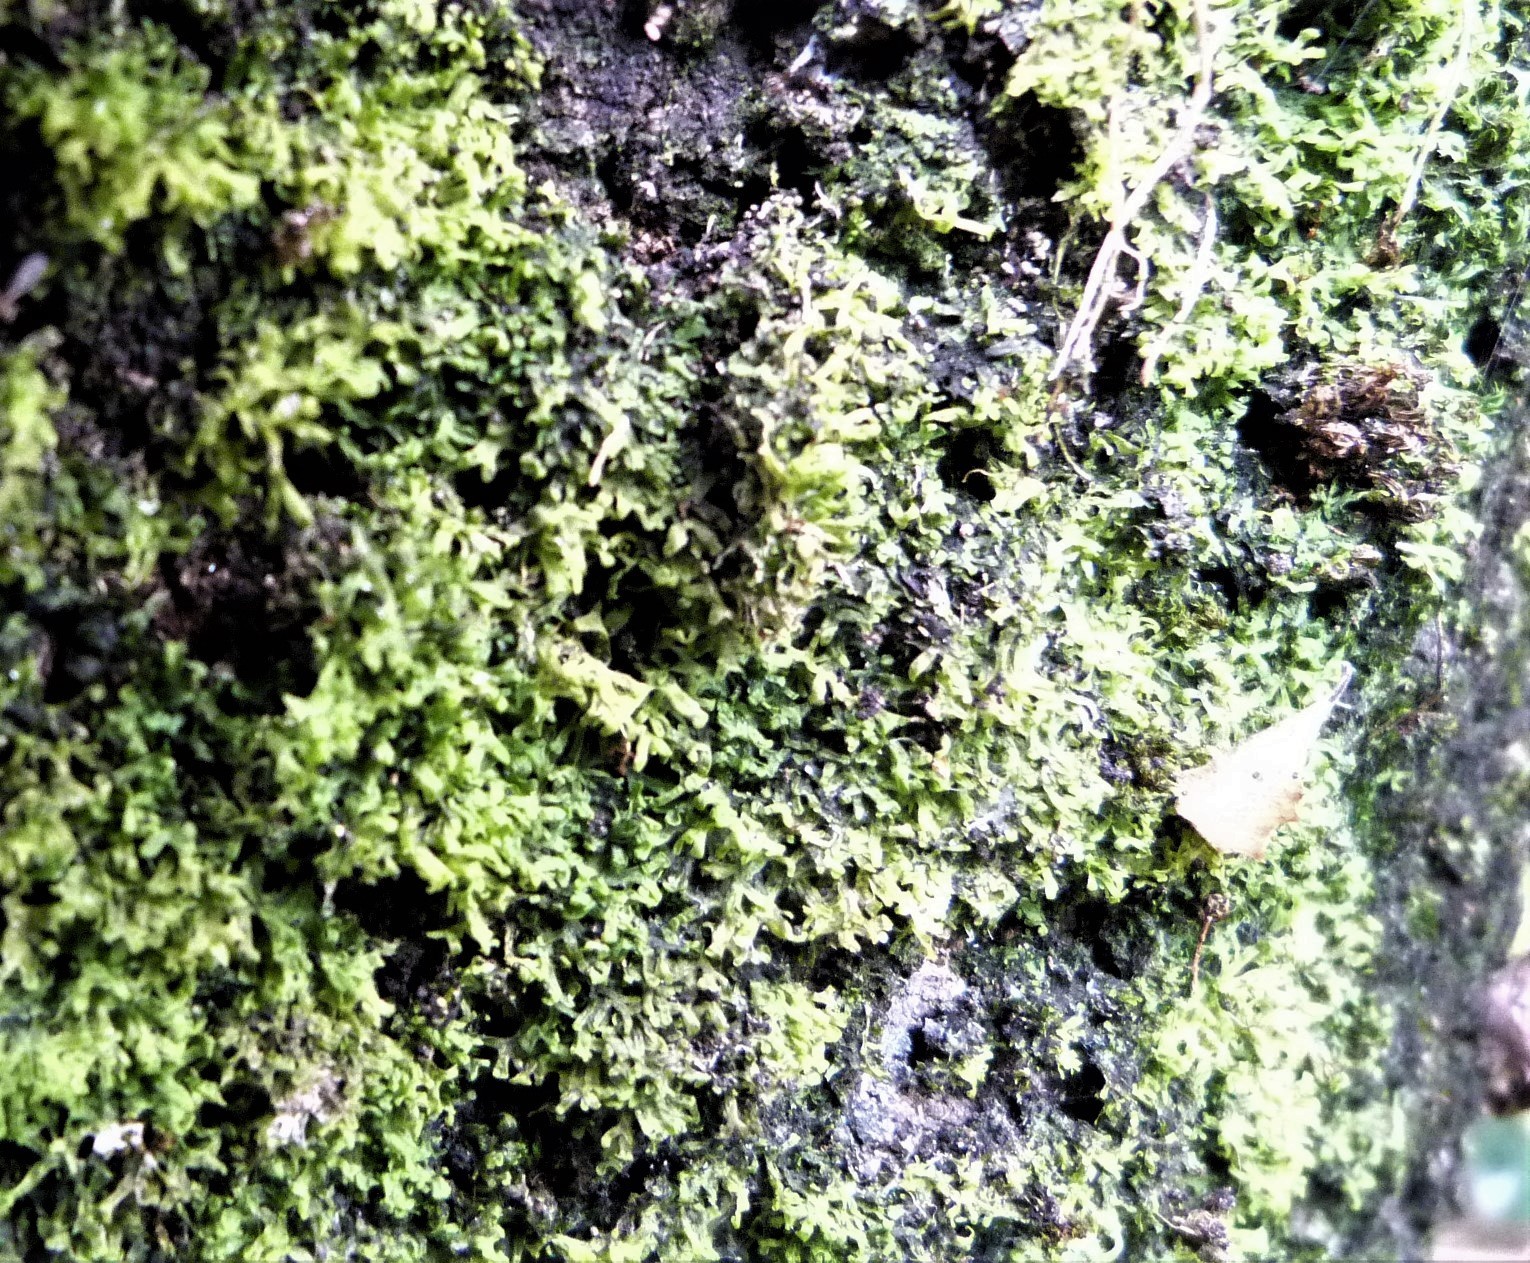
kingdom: Plantae
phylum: Marchantiophyta
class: Jungermanniopsida
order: Metzgeriales
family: Metzgeriaceae
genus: Metzgeria
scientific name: Metzgeria furcata
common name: Forked veilwort
